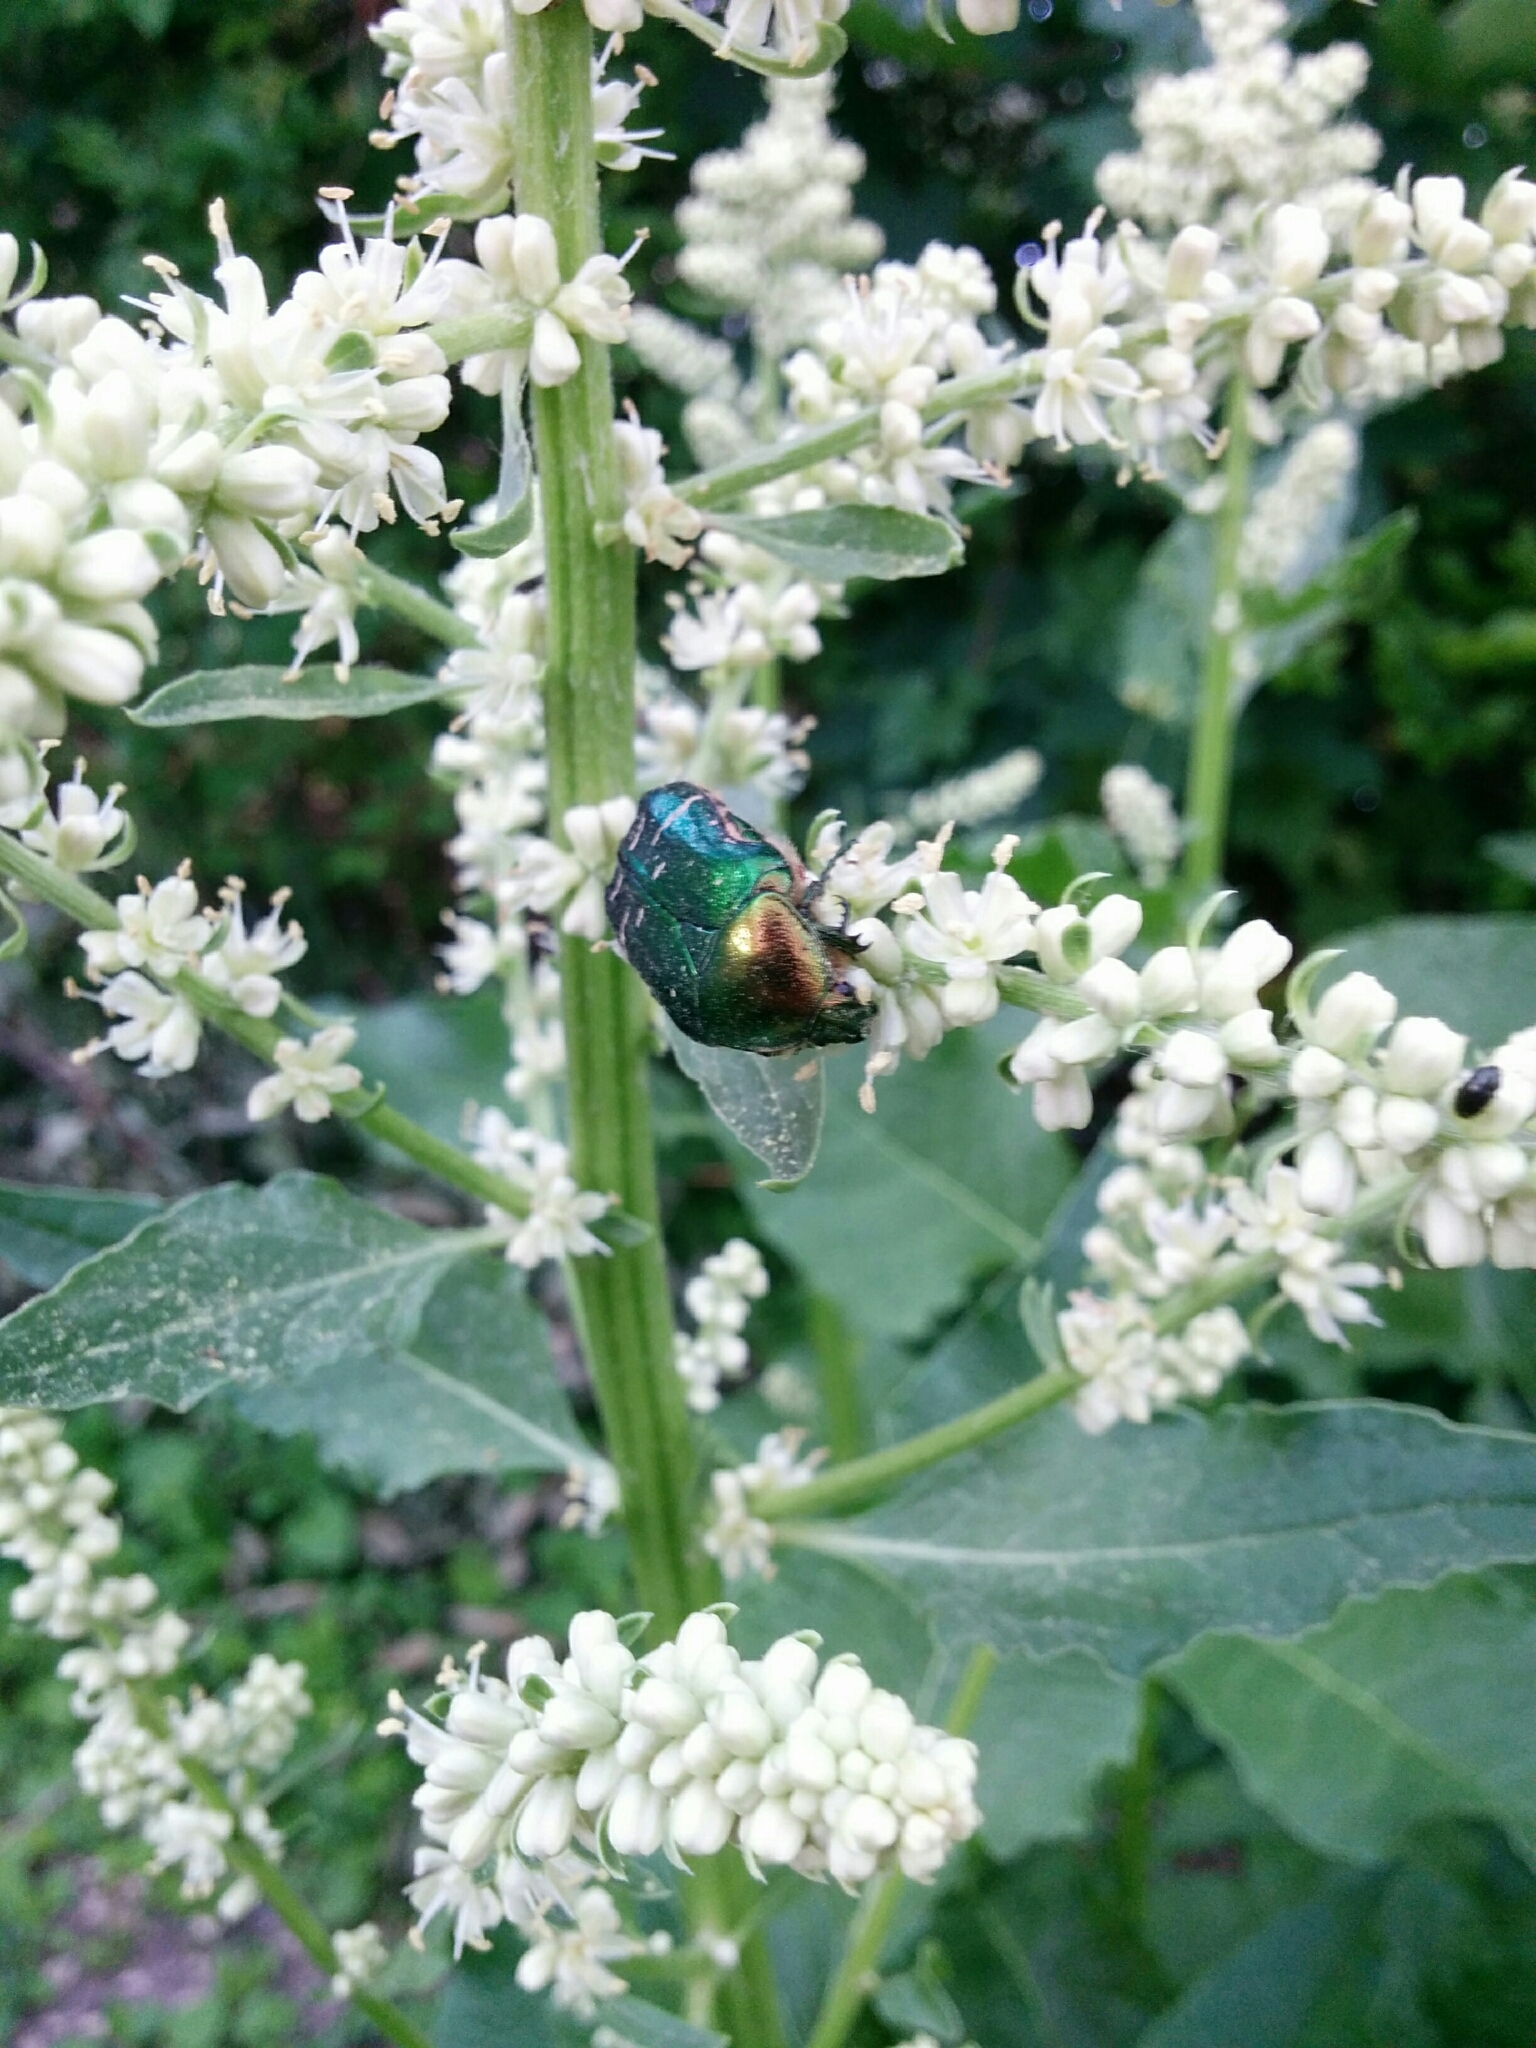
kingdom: Animalia
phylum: Arthropoda
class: Insecta
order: Coleoptera
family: Scarabaeidae
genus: Cetonia
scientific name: Cetonia aurata
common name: Rose chafer
